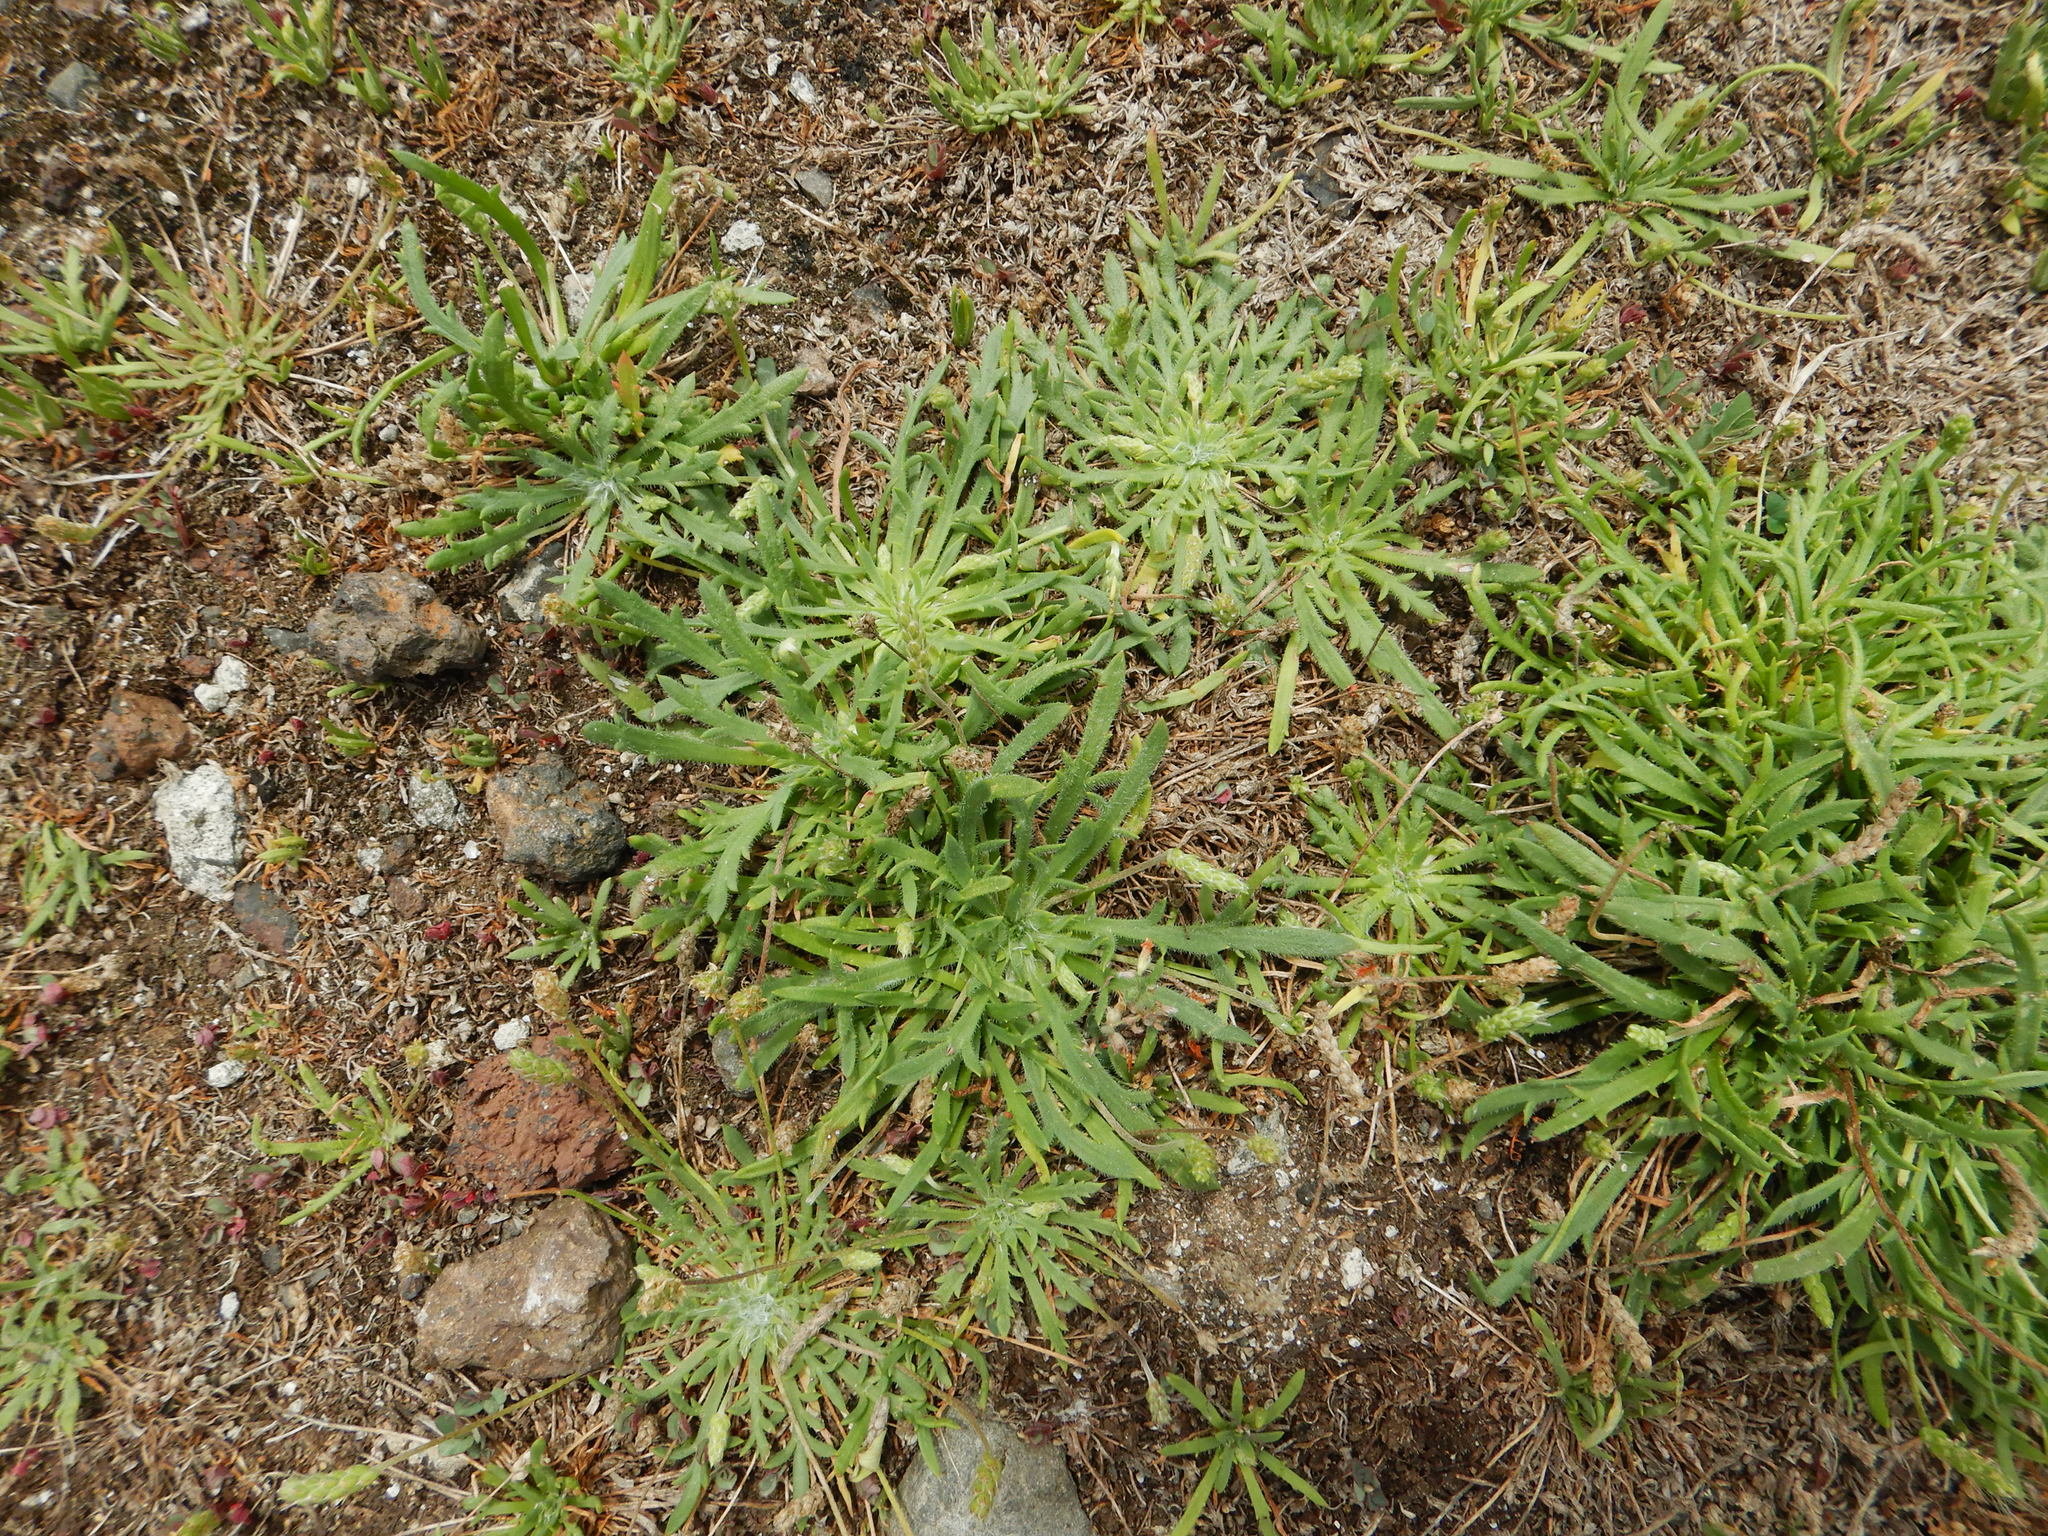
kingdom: Plantae
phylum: Tracheophyta
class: Magnoliopsida
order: Lamiales
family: Plantaginaceae
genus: Plantago
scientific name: Plantago coronopus
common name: Buck's-horn plantain
